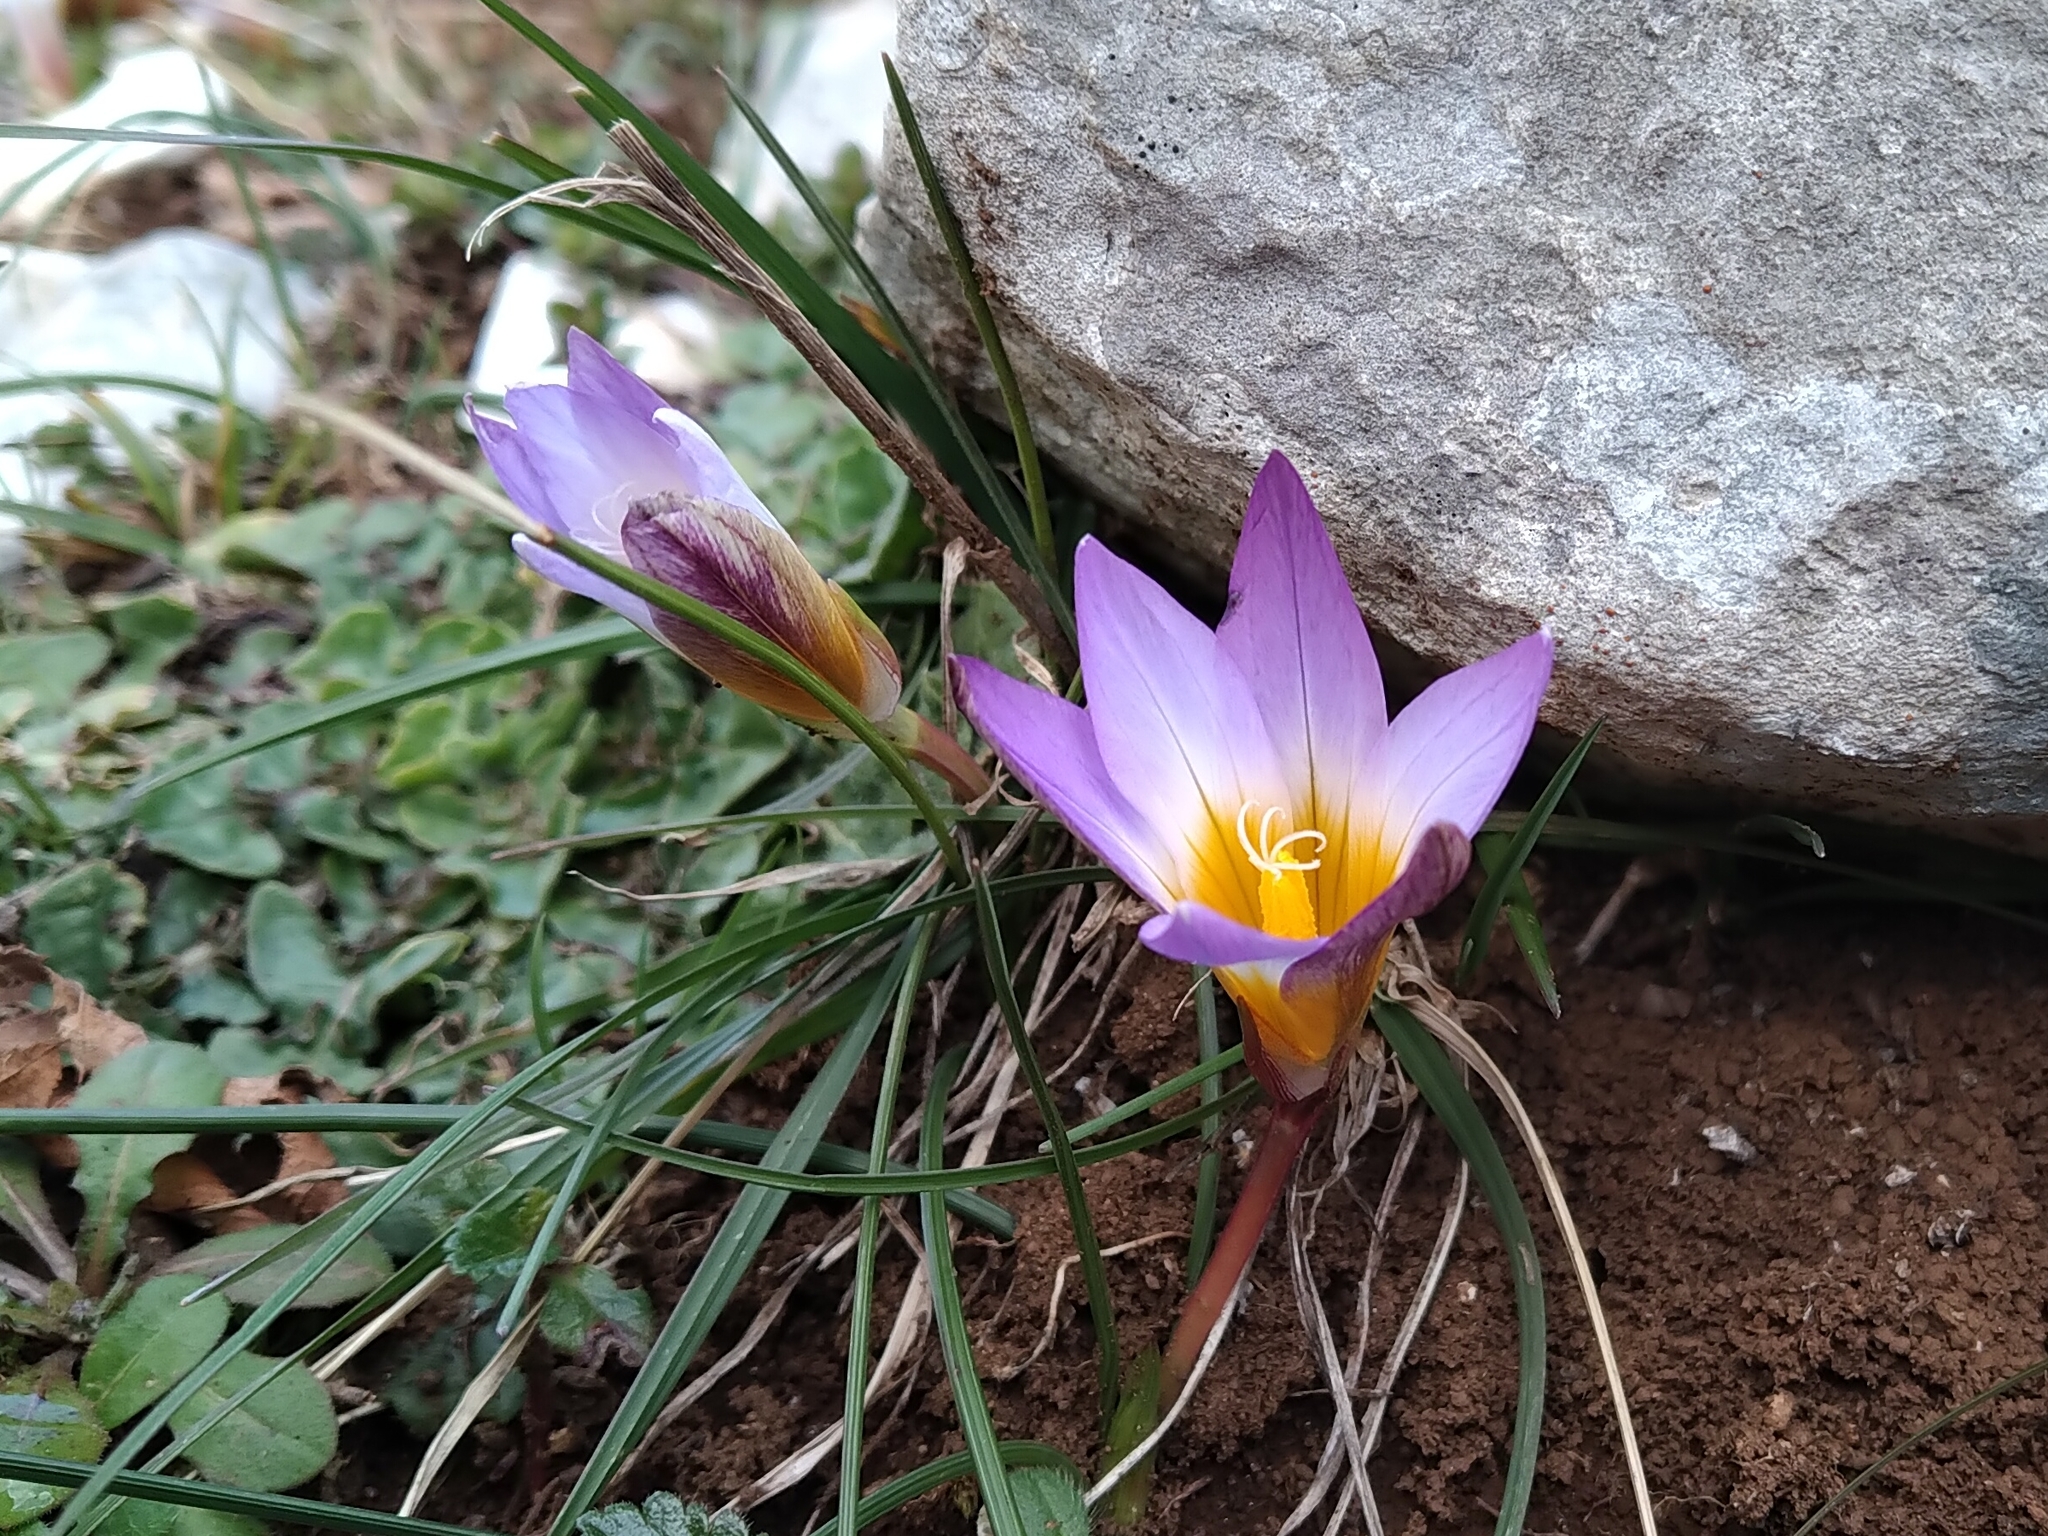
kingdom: Plantae
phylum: Tracheophyta
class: Liliopsida
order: Asparagales
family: Iridaceae
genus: Romulea
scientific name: Romulea bulbocodium
